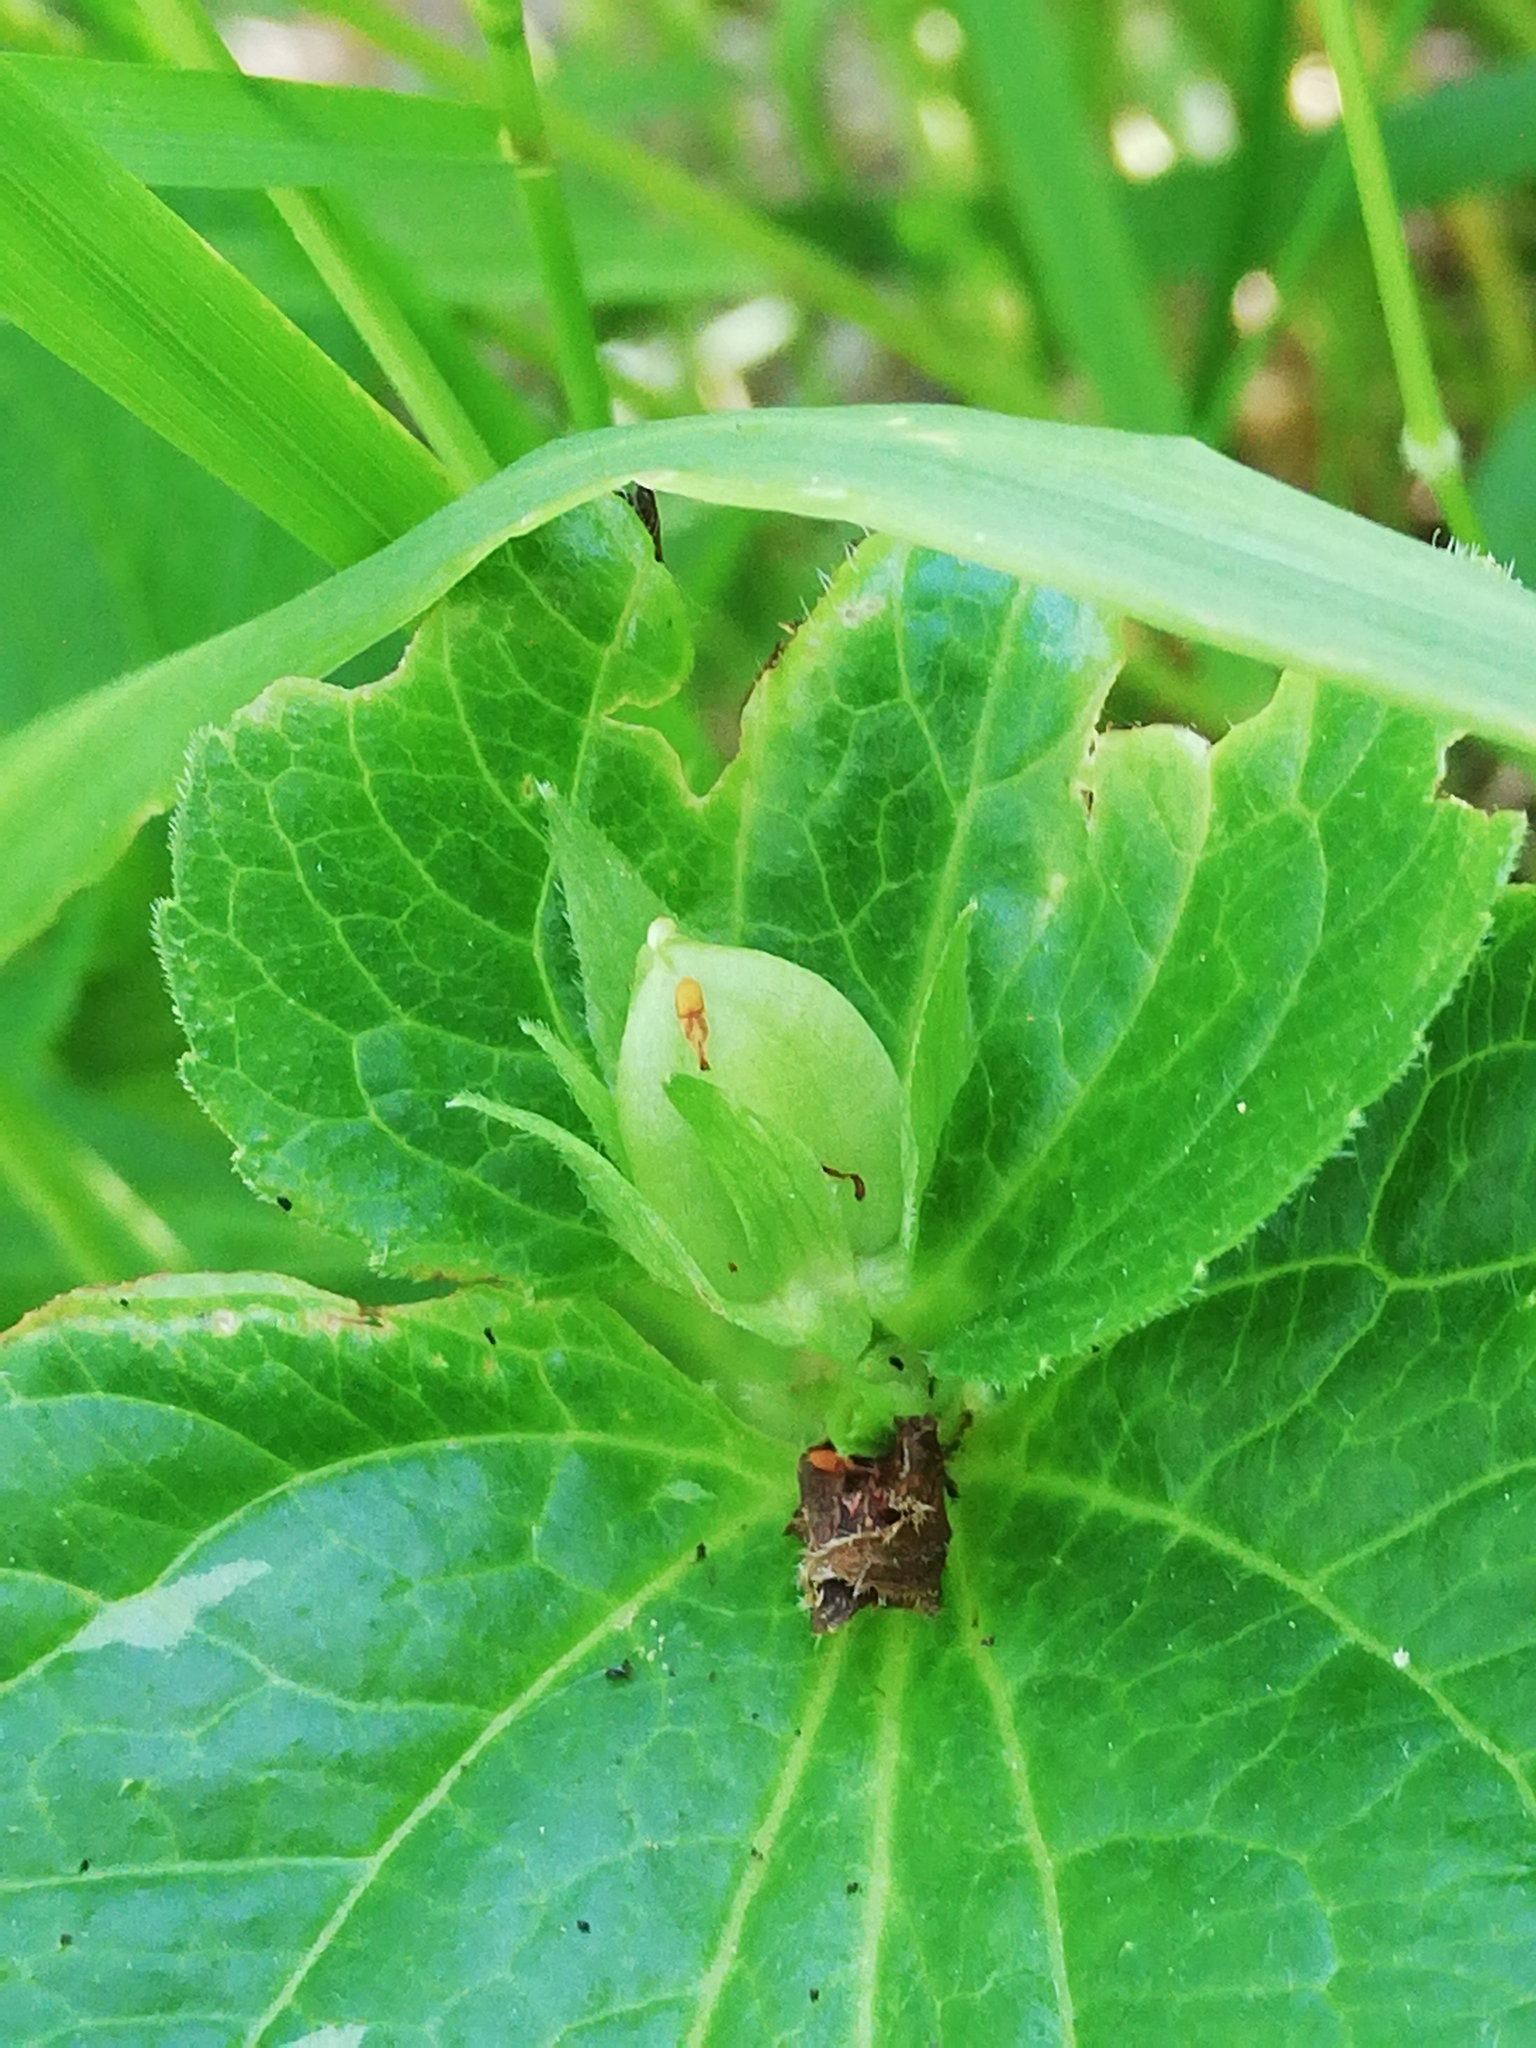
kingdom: Plantae
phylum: Tracheophyta
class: Magnoliopsida
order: Malpighiales
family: Violaceae
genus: Viola
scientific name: Viola mirabilis
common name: Wonder violet
